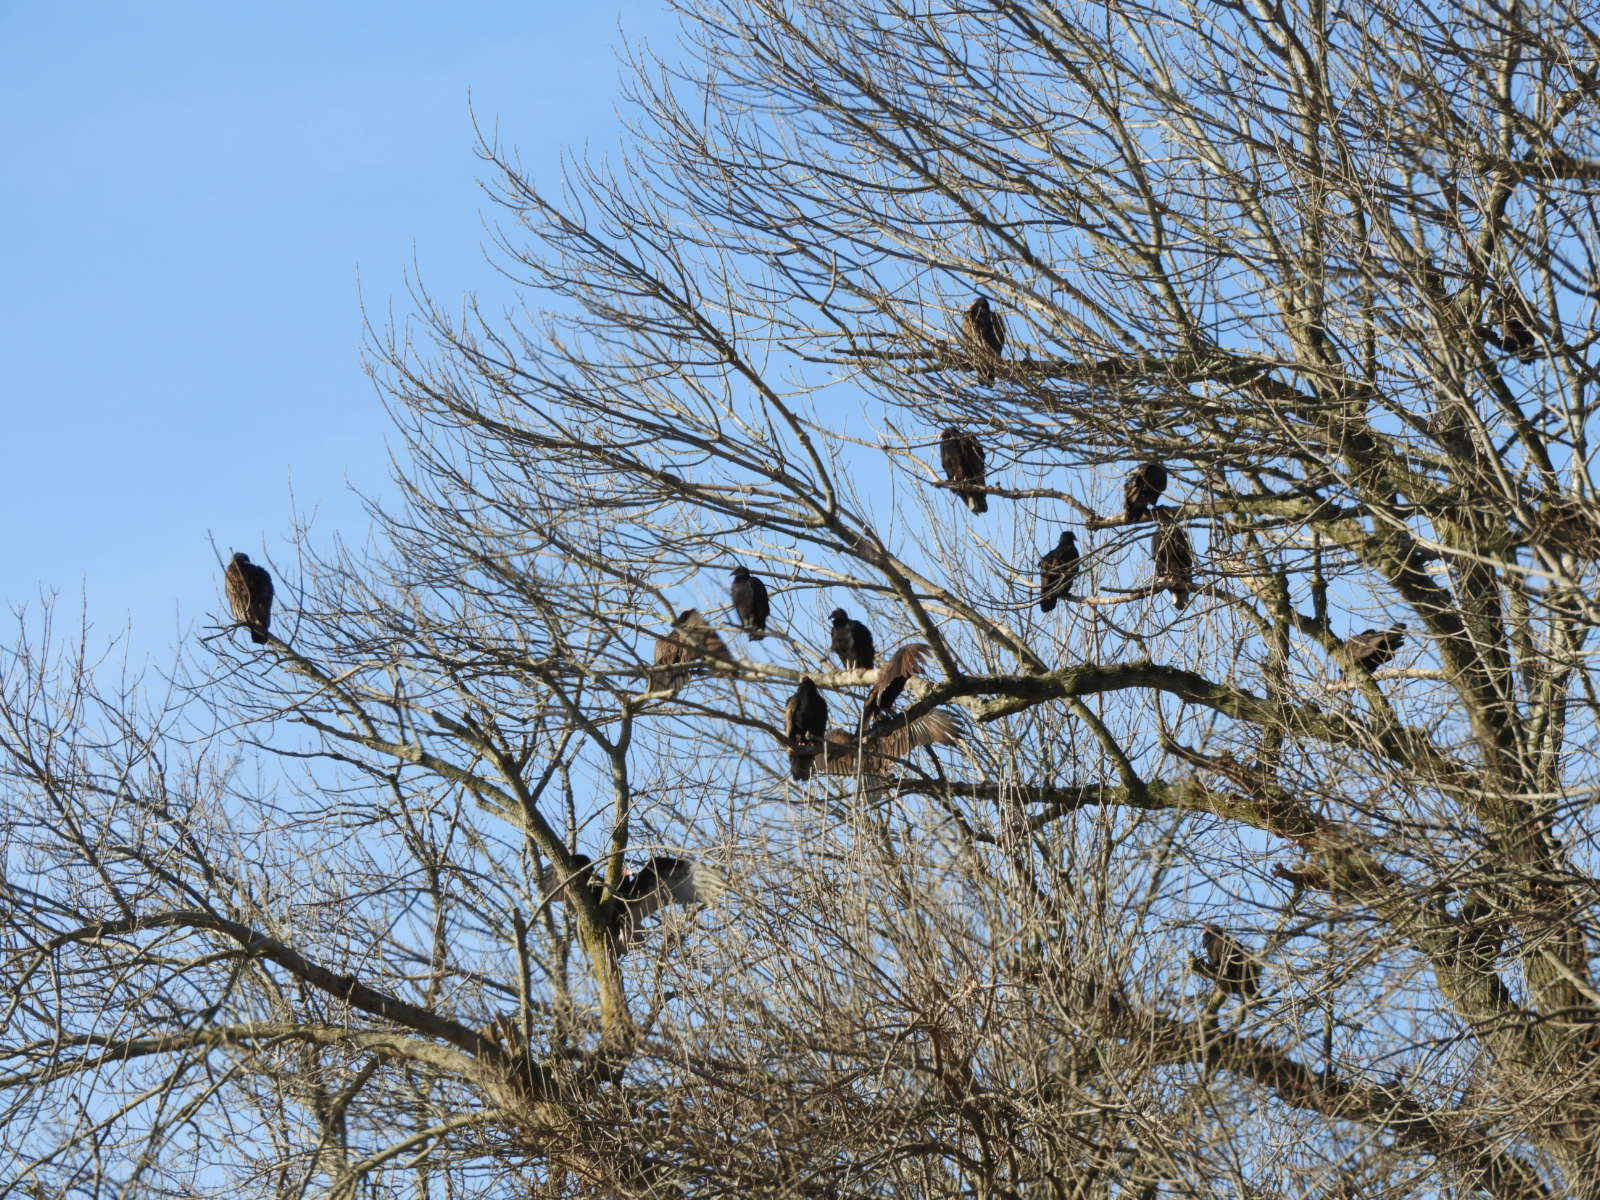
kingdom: Animalia
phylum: Chordata
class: Aves
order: Accipitriformes
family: Cathartidae
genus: Cathartes
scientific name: Cathartes aura
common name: Turkey vulture
